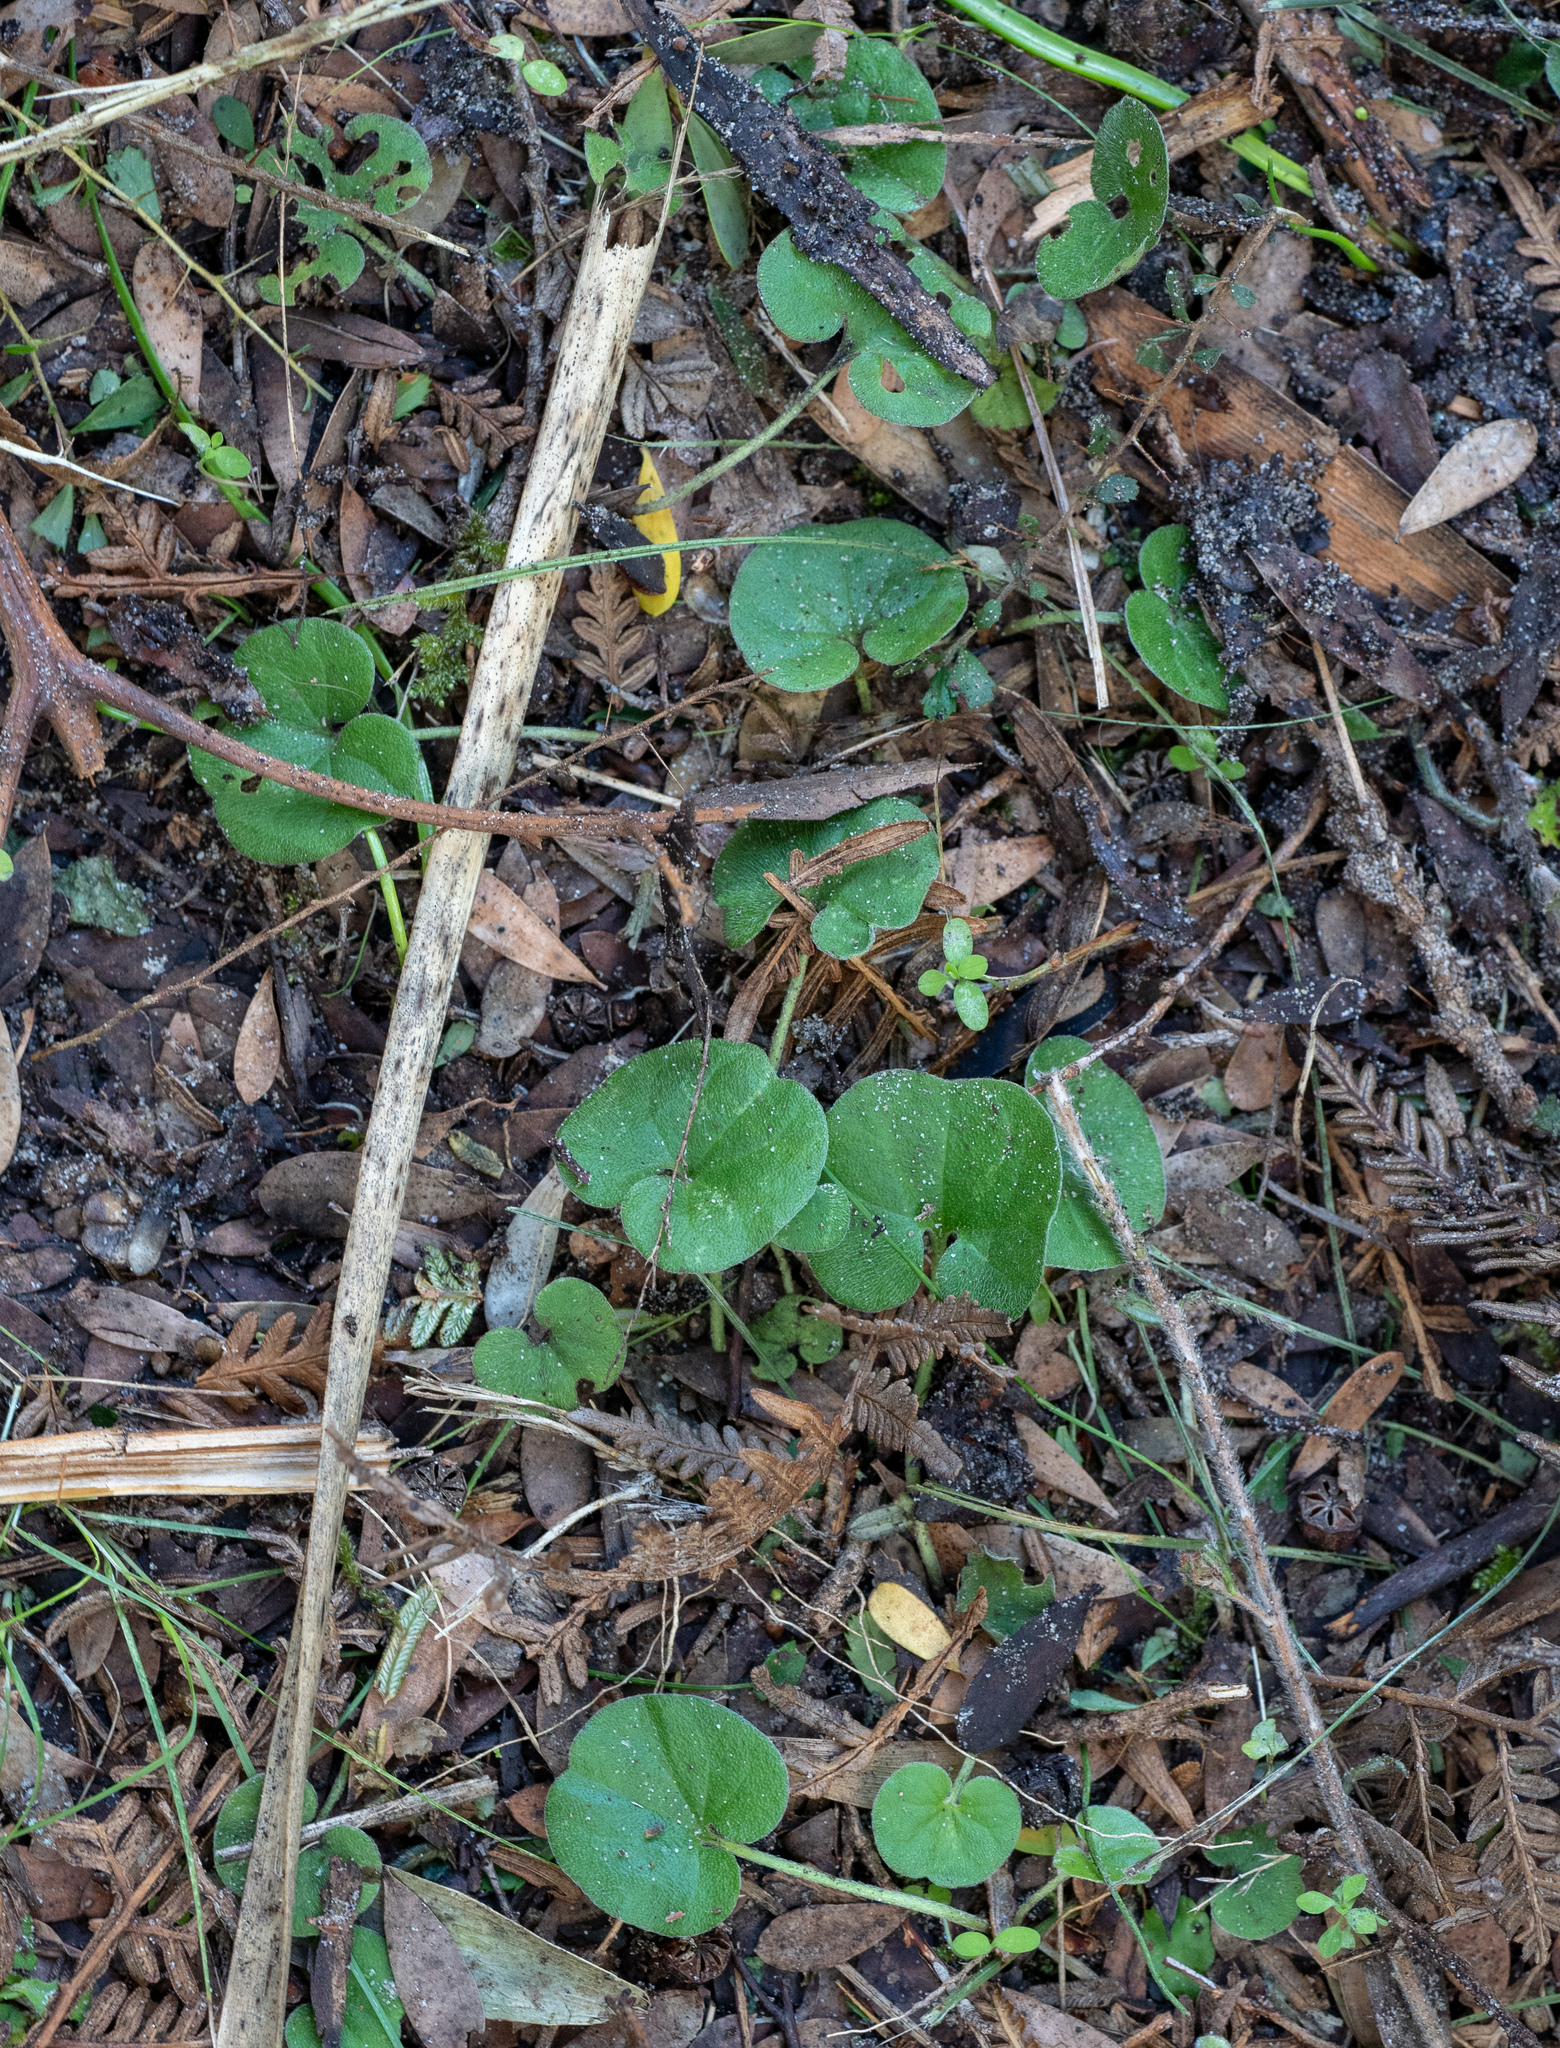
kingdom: Plantae
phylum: Tracheophyta
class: Magnoliopsida
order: Solanales
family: Convolvulaceae
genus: Dichondra
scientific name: Dichondra repens
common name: Kidneyweed
